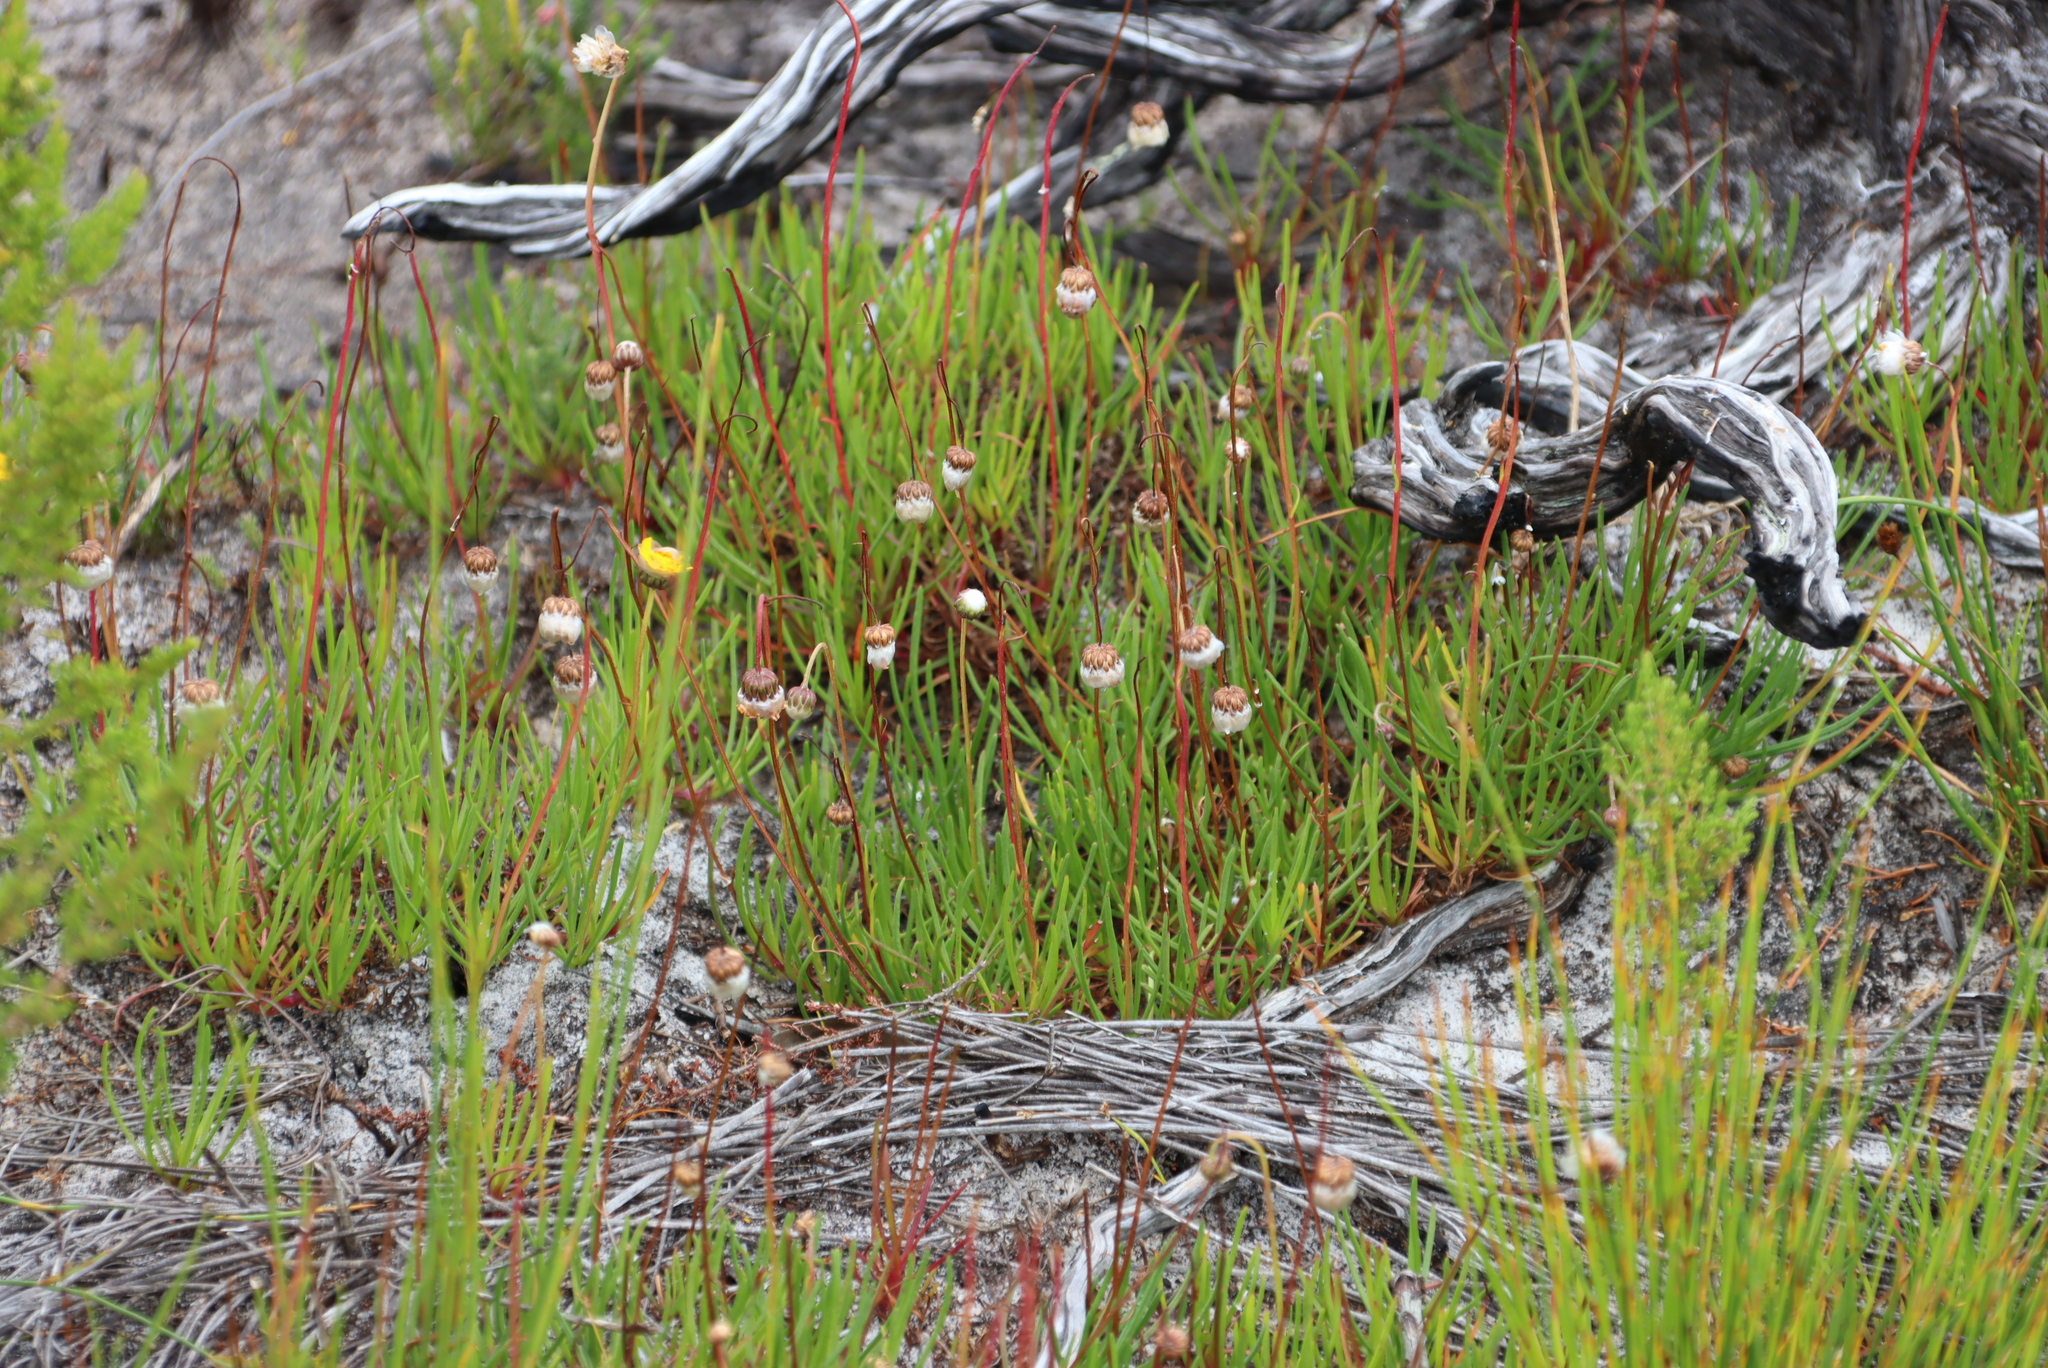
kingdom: Plantae
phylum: Tracheophyta
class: Magnoliopsida
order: Asterales
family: Asteraceae
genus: Ursinia
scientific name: Ursinia tenuifolia
